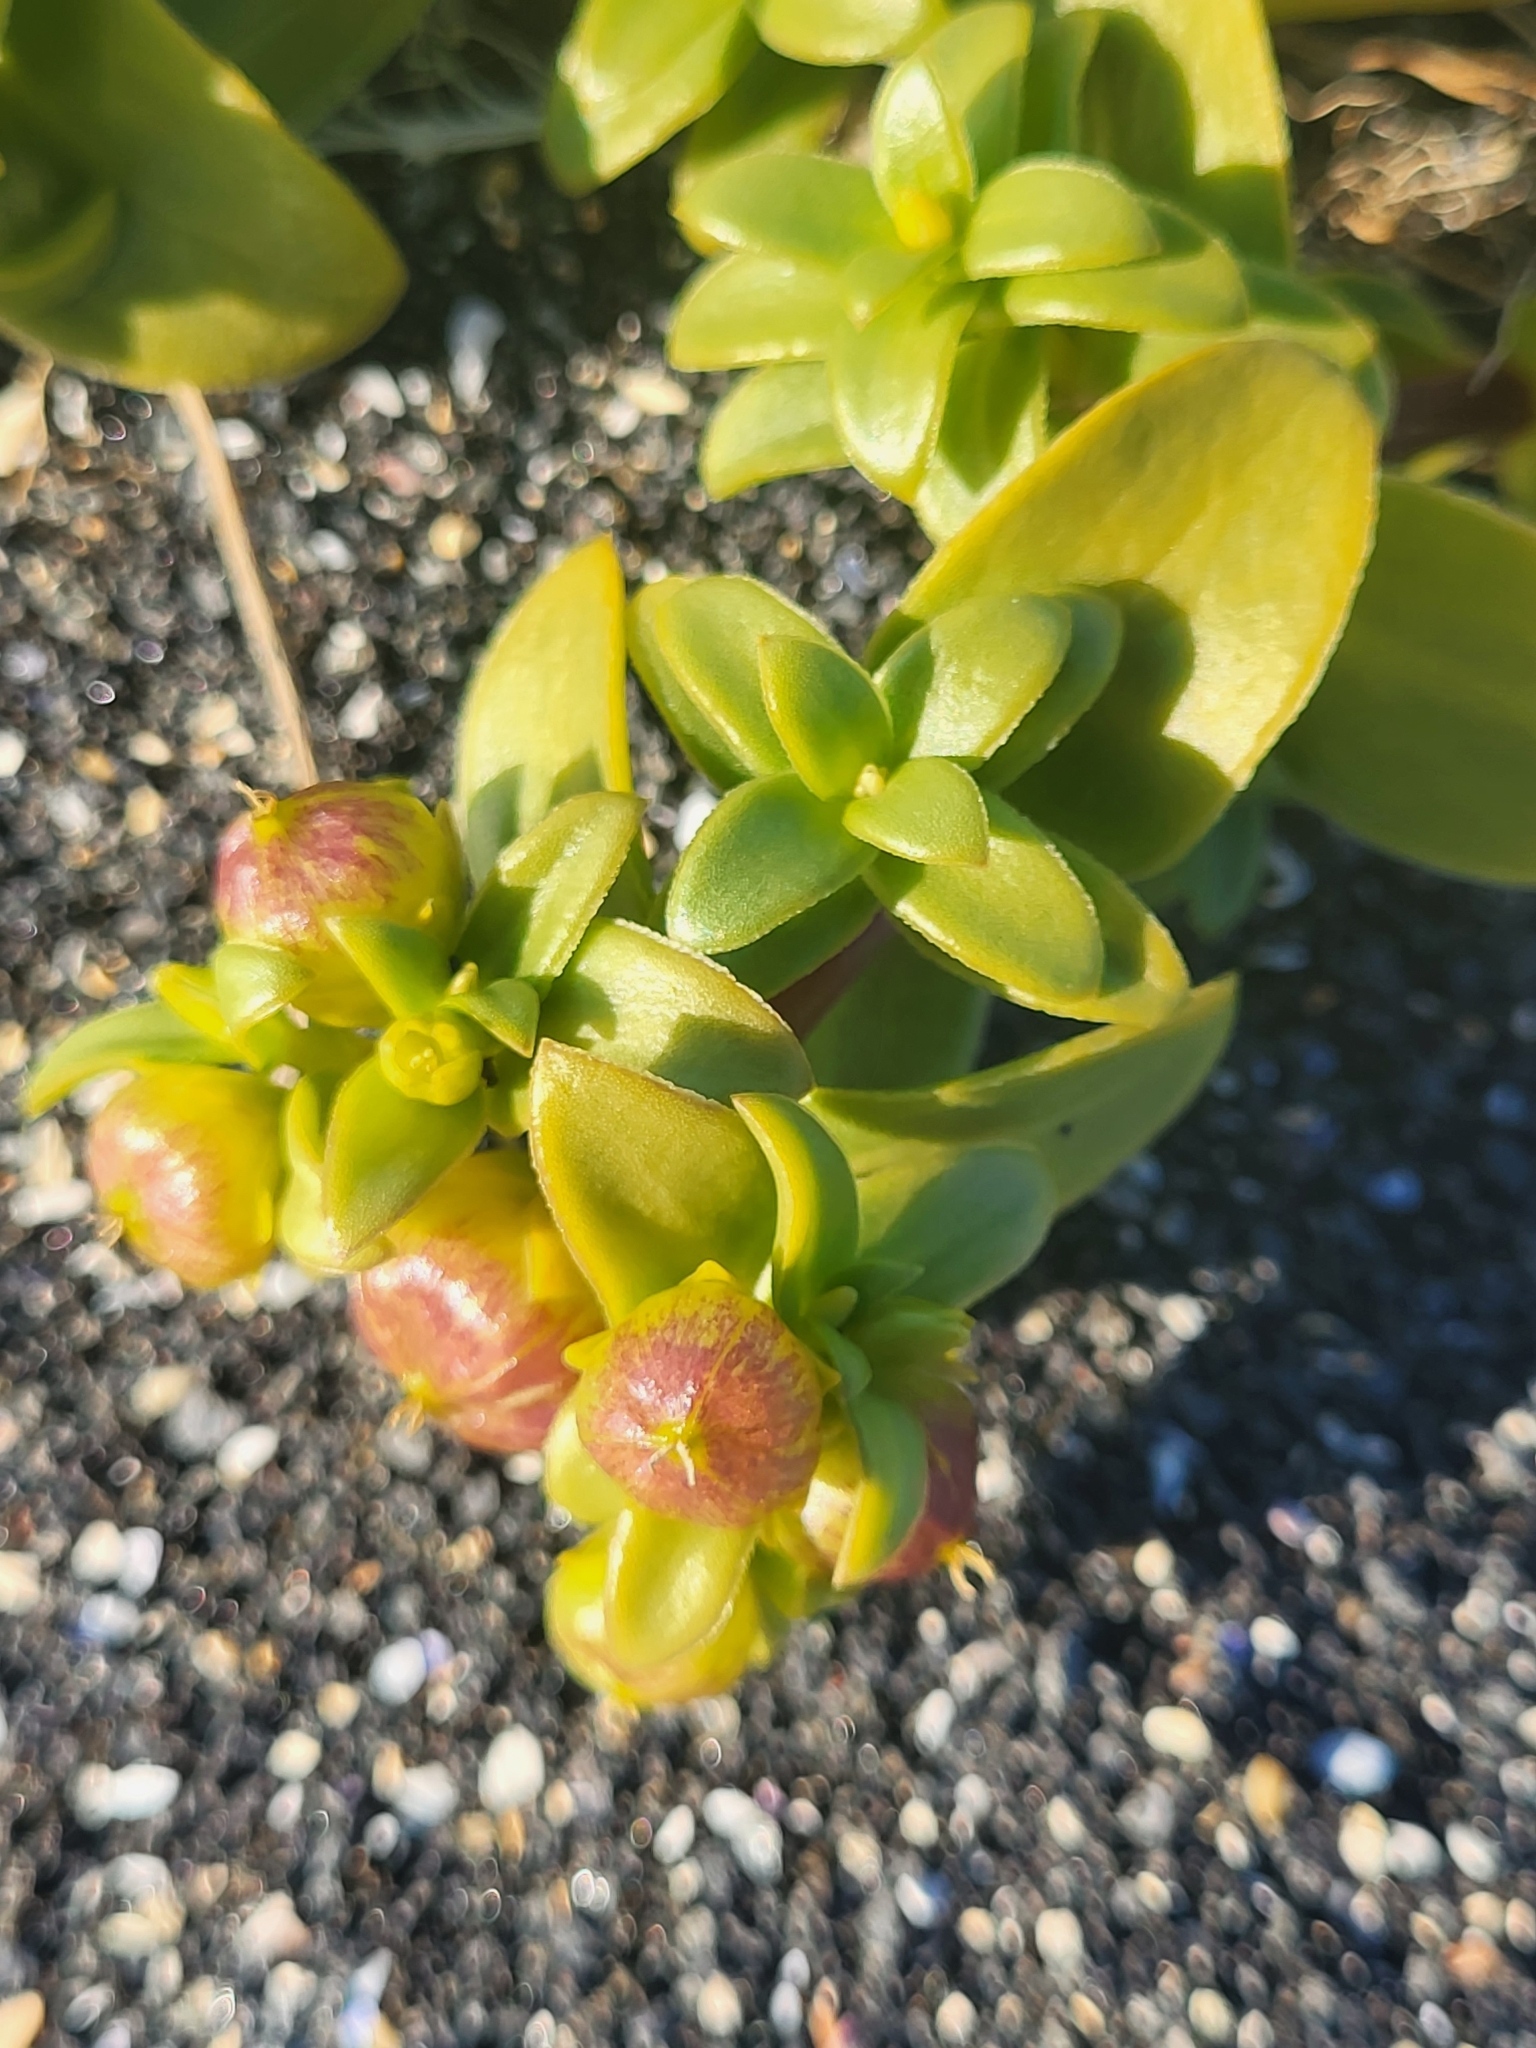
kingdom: Plantae
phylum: Tracheophyta
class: Magnoliopsida
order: Caryophyllales
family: Caryophyllaceae
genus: Honckenya
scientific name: Honckenya peploides
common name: Sea sandwort
